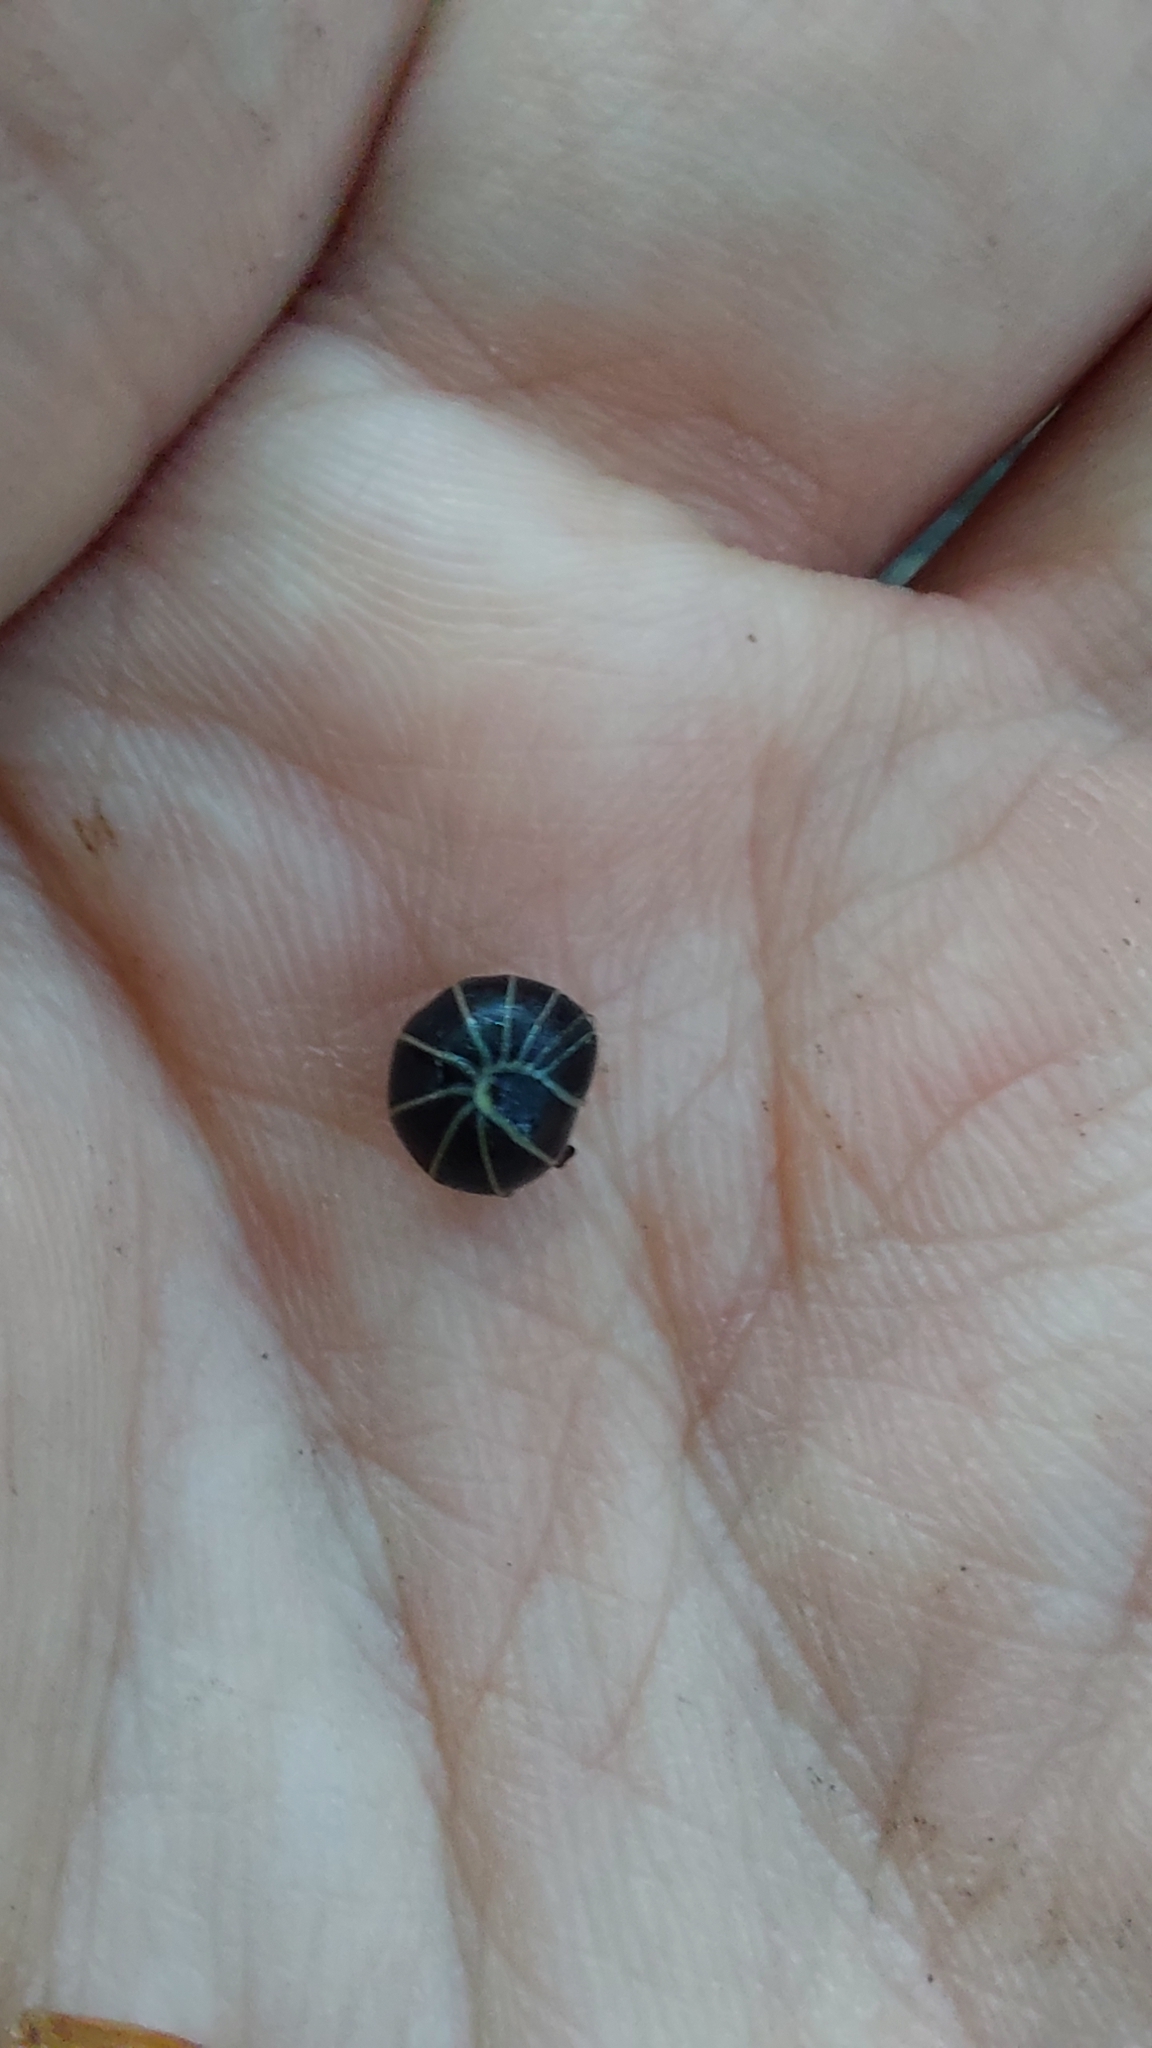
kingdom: Animalia
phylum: Arthropoda
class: Diplopoda
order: Glomerida
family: Glomeridae
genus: Glomeris
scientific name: Glomeris marginata
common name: Bordered pill millipede
